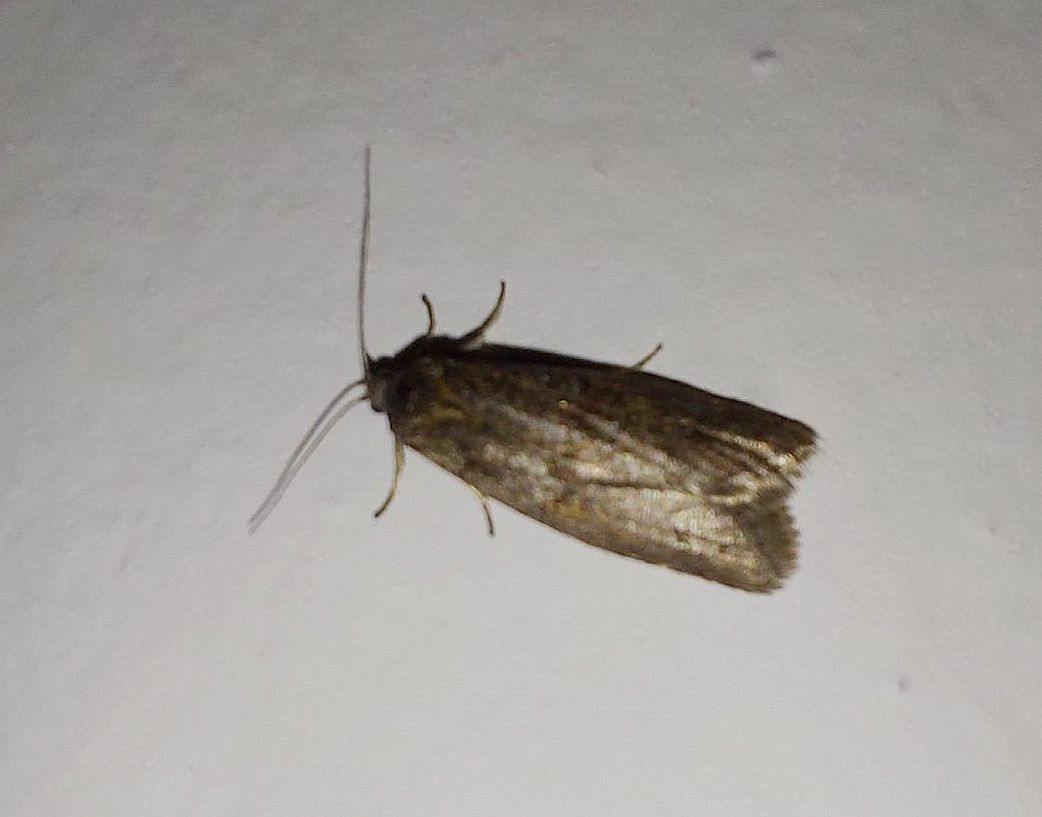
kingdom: Animalia
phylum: Arthropoda
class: Insecta
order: Lepidoptera
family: Tortricidae
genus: Tortricodes
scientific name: Tortricodes alternella
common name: Winter shade
